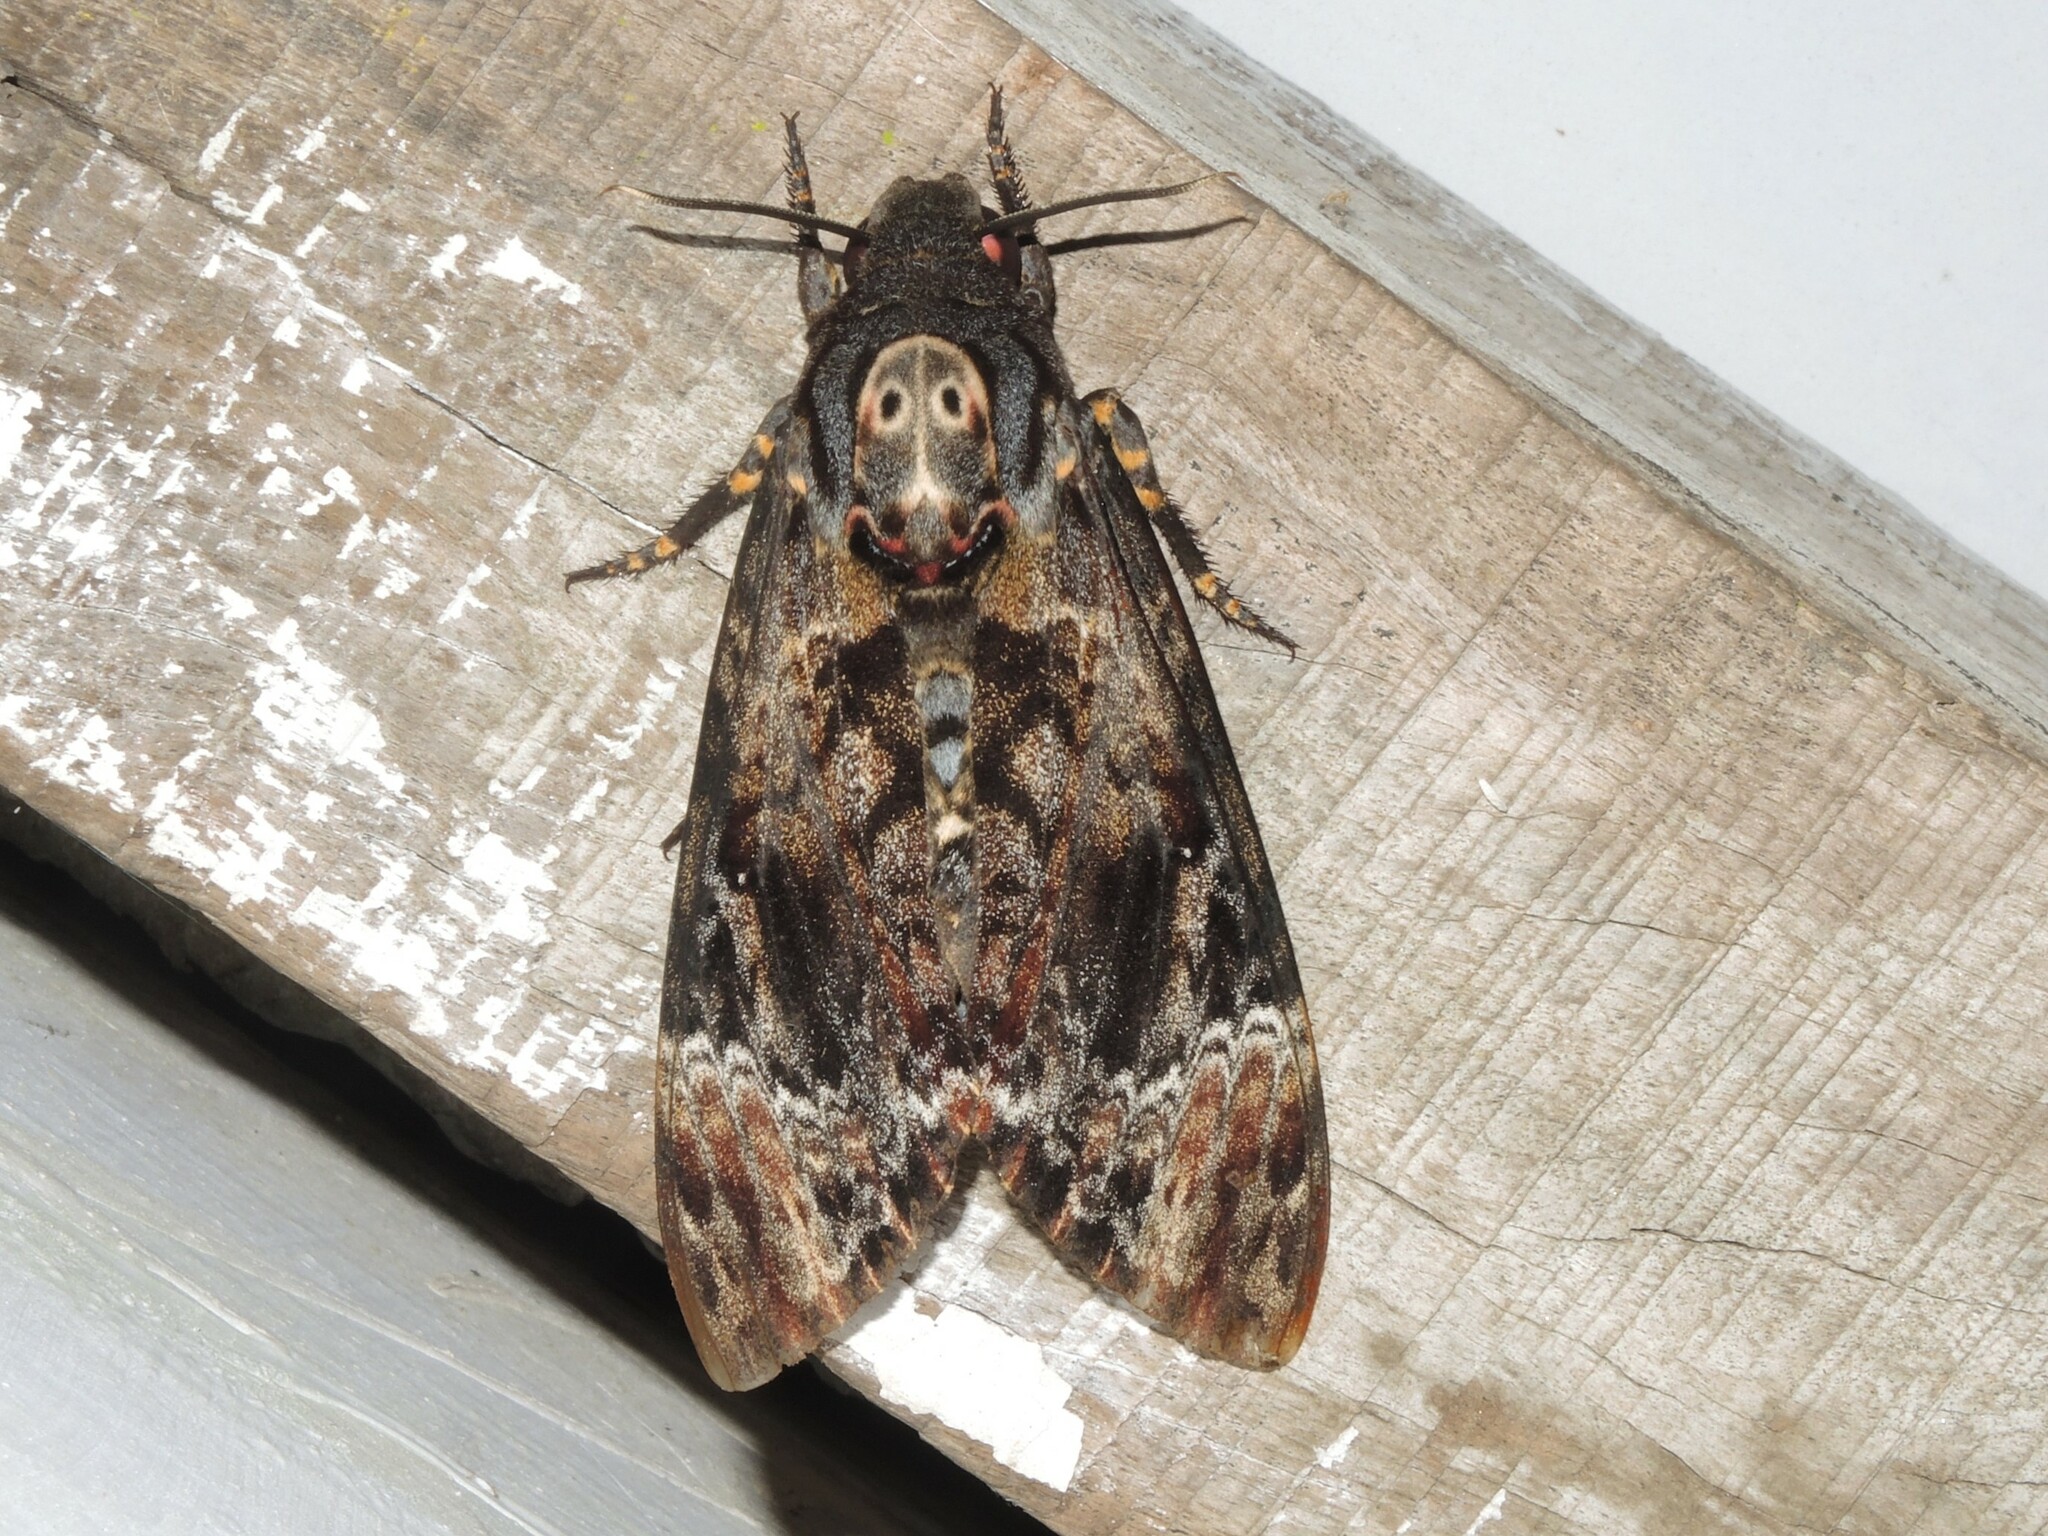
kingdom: Animalia
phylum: Arthropoda
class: Insecta
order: Lepidoptera
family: Sphingidae
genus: Acherontia
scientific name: Acherontia lachesis
